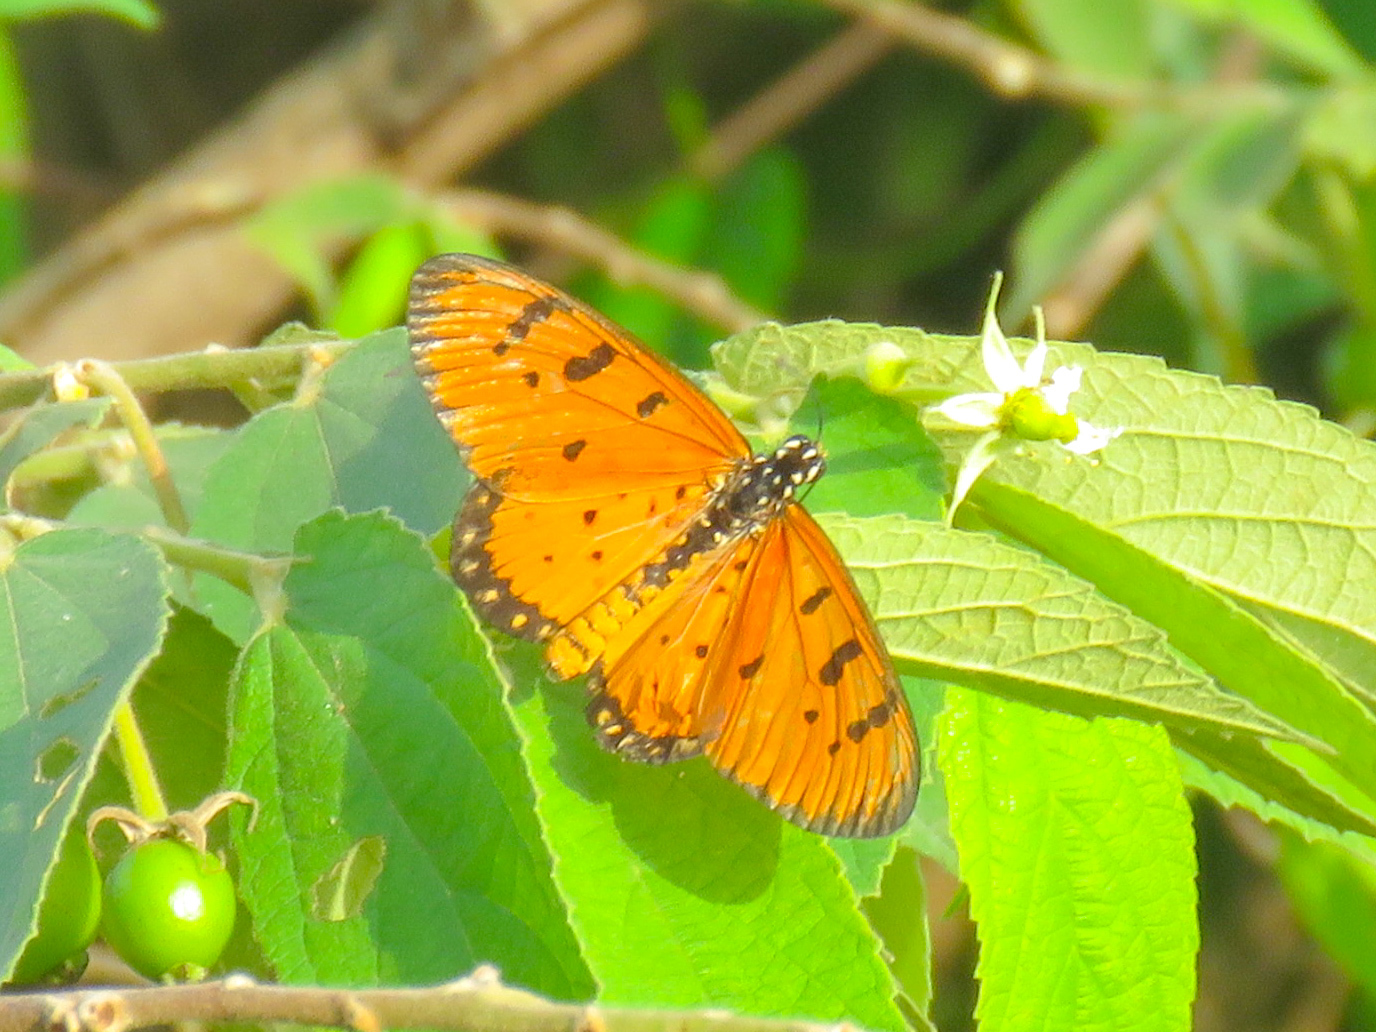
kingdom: Animalia
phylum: Arthropoda
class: Insecta
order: Lepidoptera
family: Nymphalidae
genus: Acraea
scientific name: Acraea terpsicore
